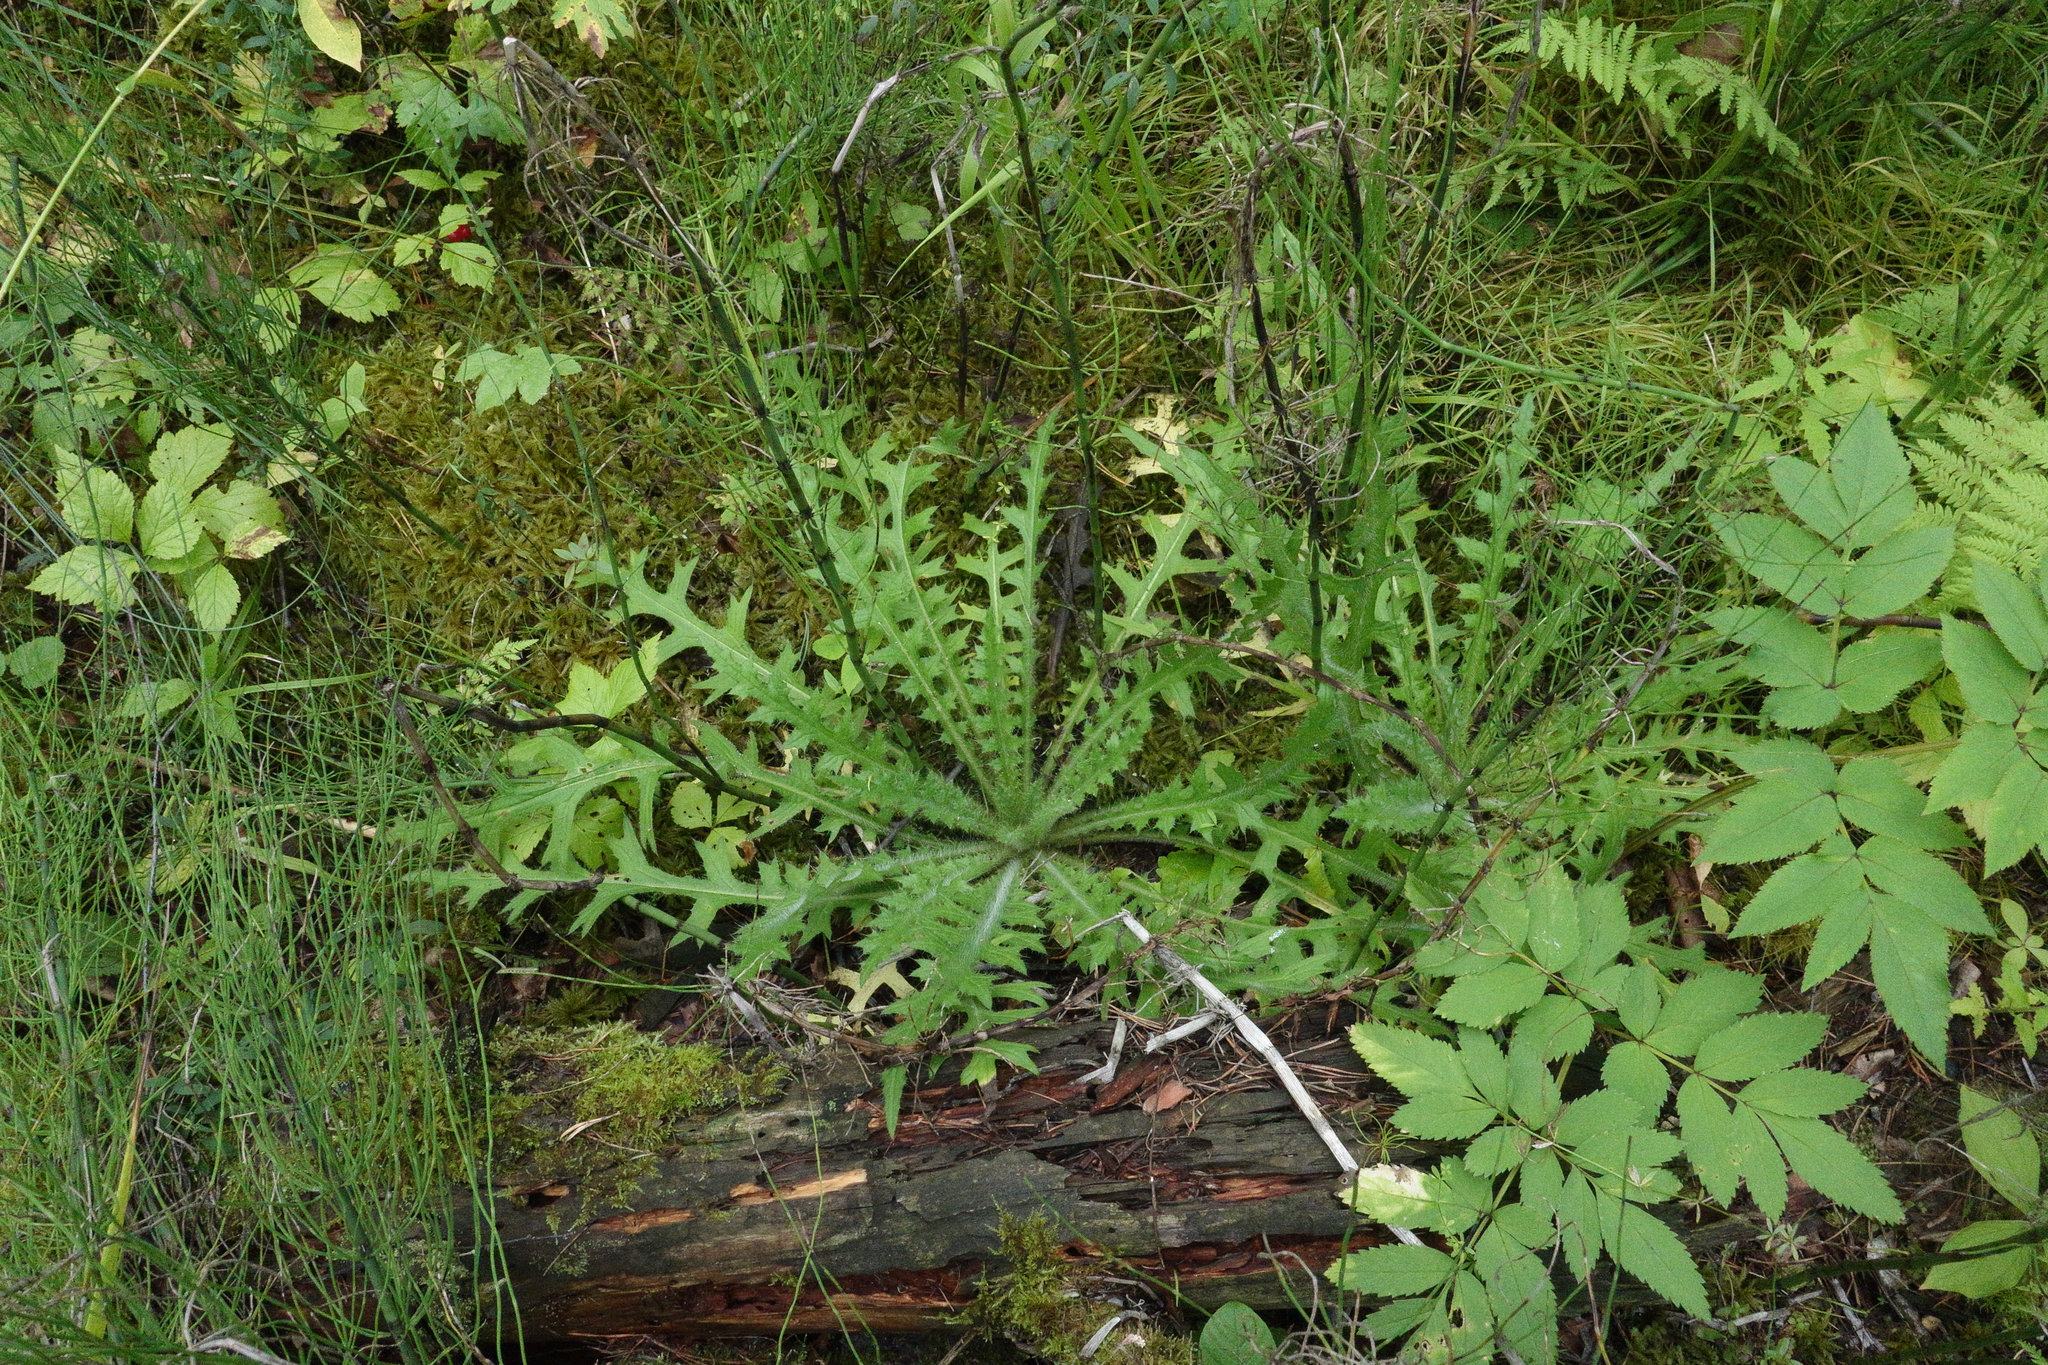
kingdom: Plantae
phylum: Tracheophyta
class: Magnoliopsida
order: Asterales
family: Asteraceae
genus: Cirsium
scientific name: Cirsium palustre
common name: Marsh thistle
